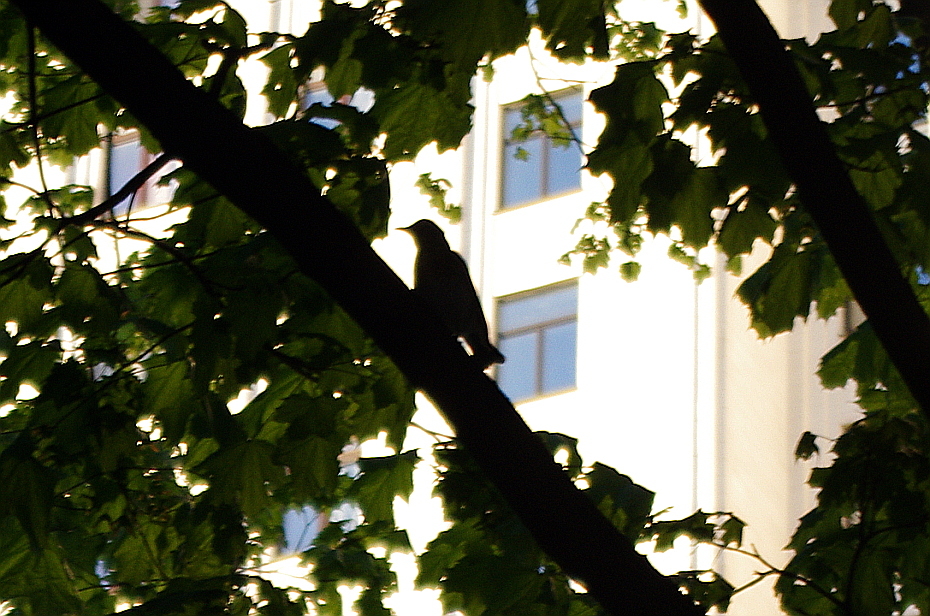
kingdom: Animalia
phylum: Chordata
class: Aves
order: Passeriformes
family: Turdidae
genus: Turdus
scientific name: Turdus pilaris
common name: Fieldfare
